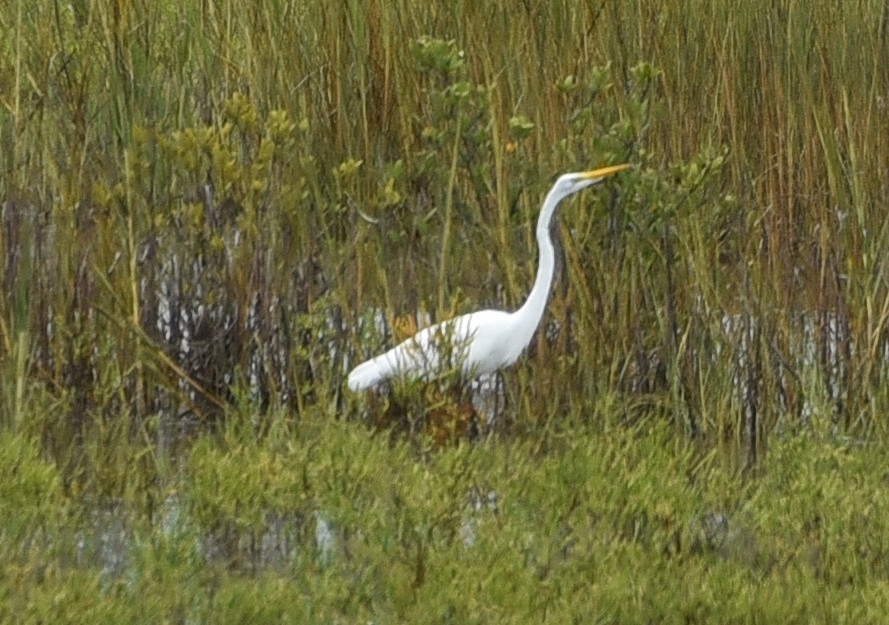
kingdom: Animalia
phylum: Chordata
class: Aves
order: Pelecaniformes
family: Ardeidae
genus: Ardea
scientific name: Ardea alba
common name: Great egret
